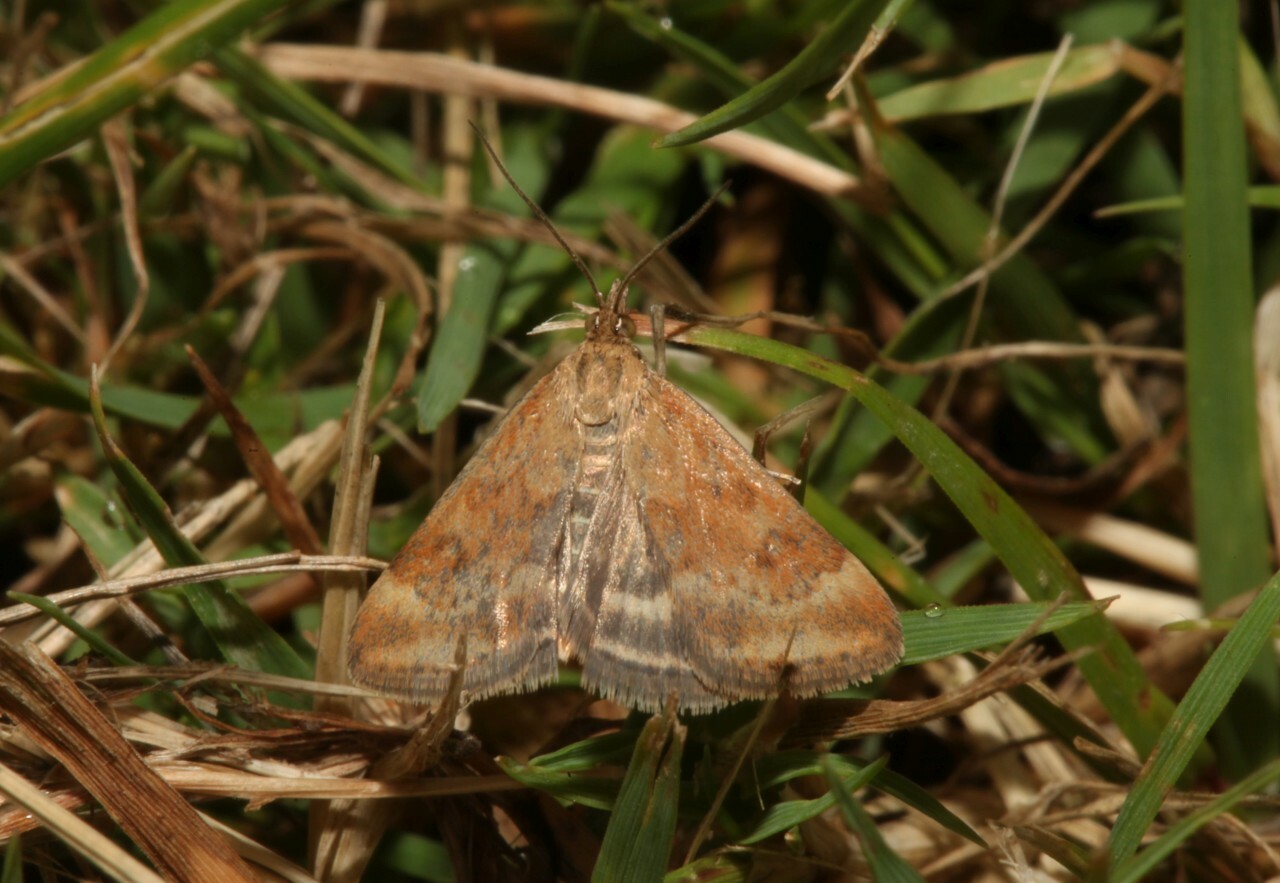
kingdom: Animalia
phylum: Arthropoda
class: Insecta
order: Lepidoptera
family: Crambidae
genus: Pyrausta
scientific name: Pyrausta despicata
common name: Straw-barred pearl
